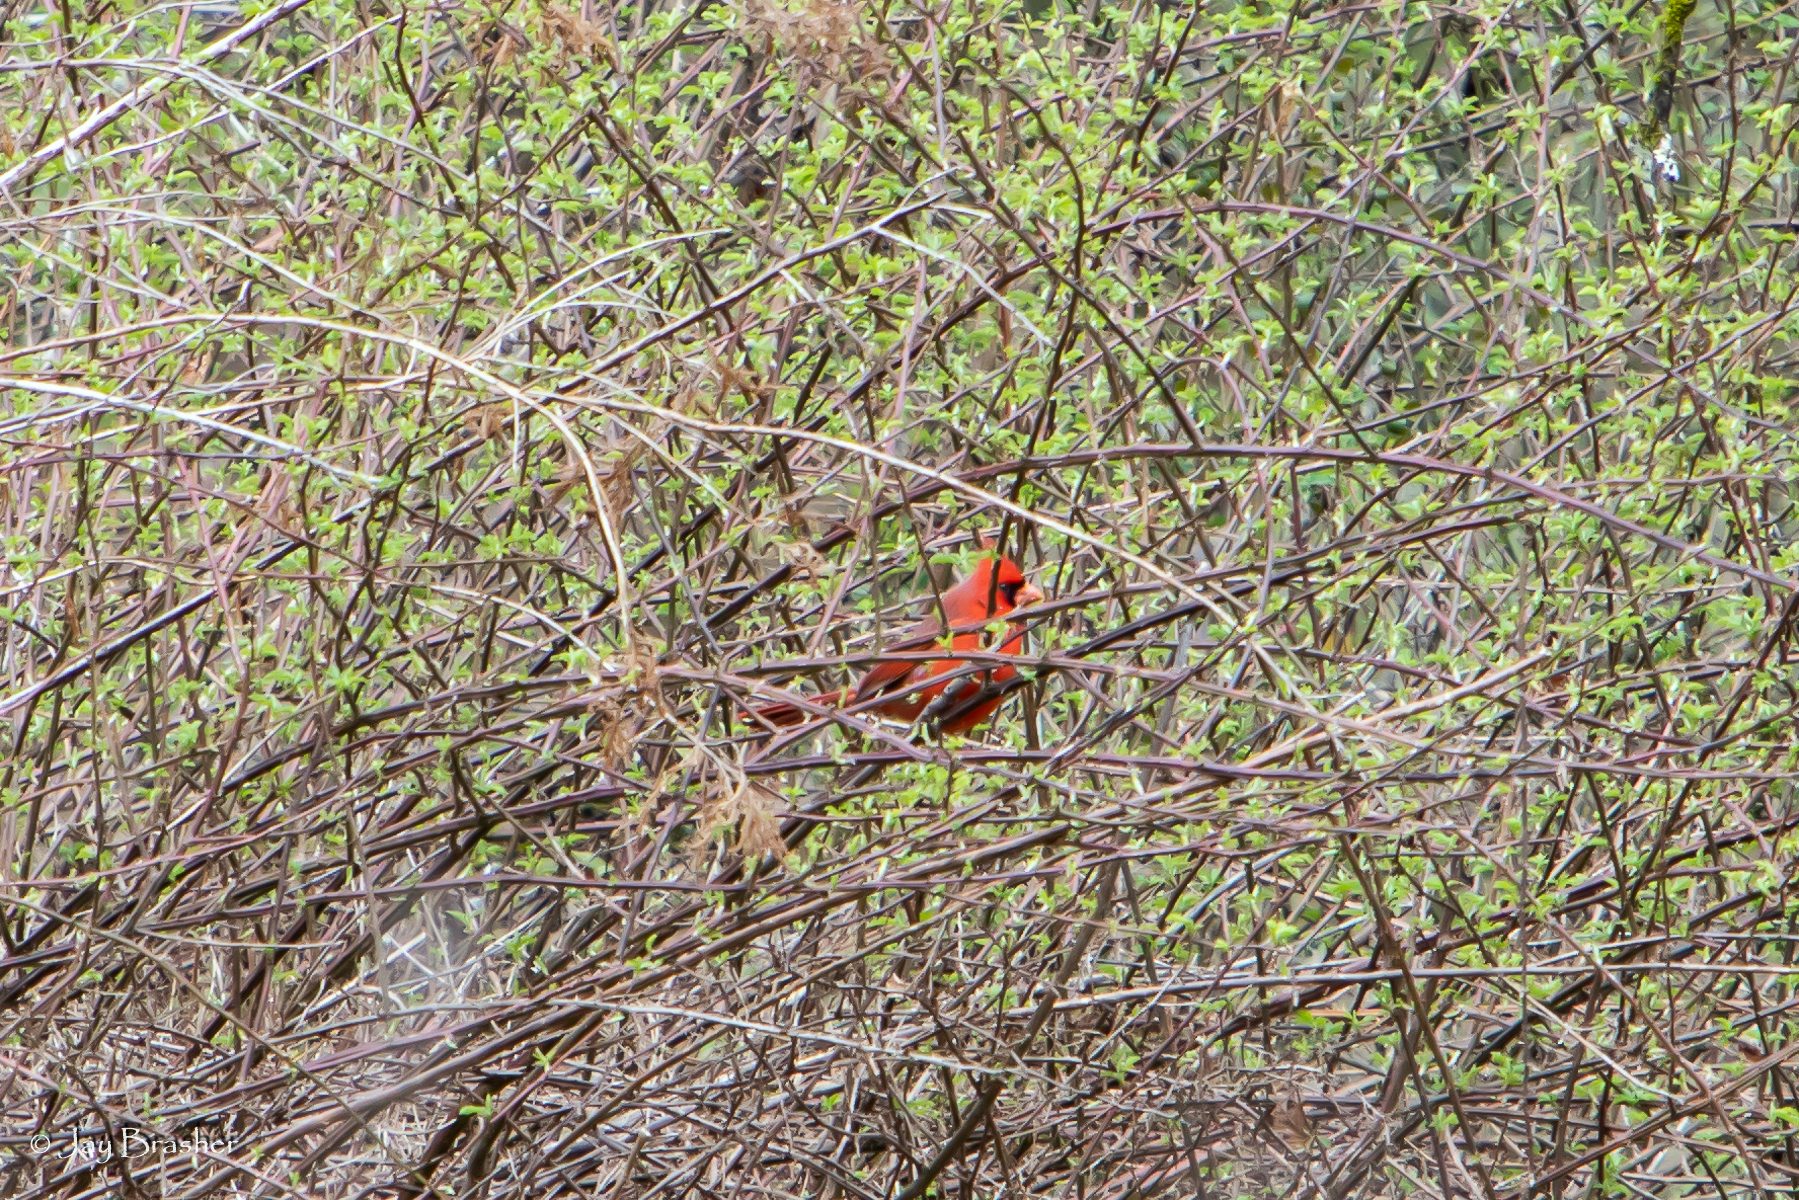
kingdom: Animalia
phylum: Chordata
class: Aves
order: Passeriformes
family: Cardinalidae
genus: Cardinalis
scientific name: Cardinalis cardinalis
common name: Northern cardinal
